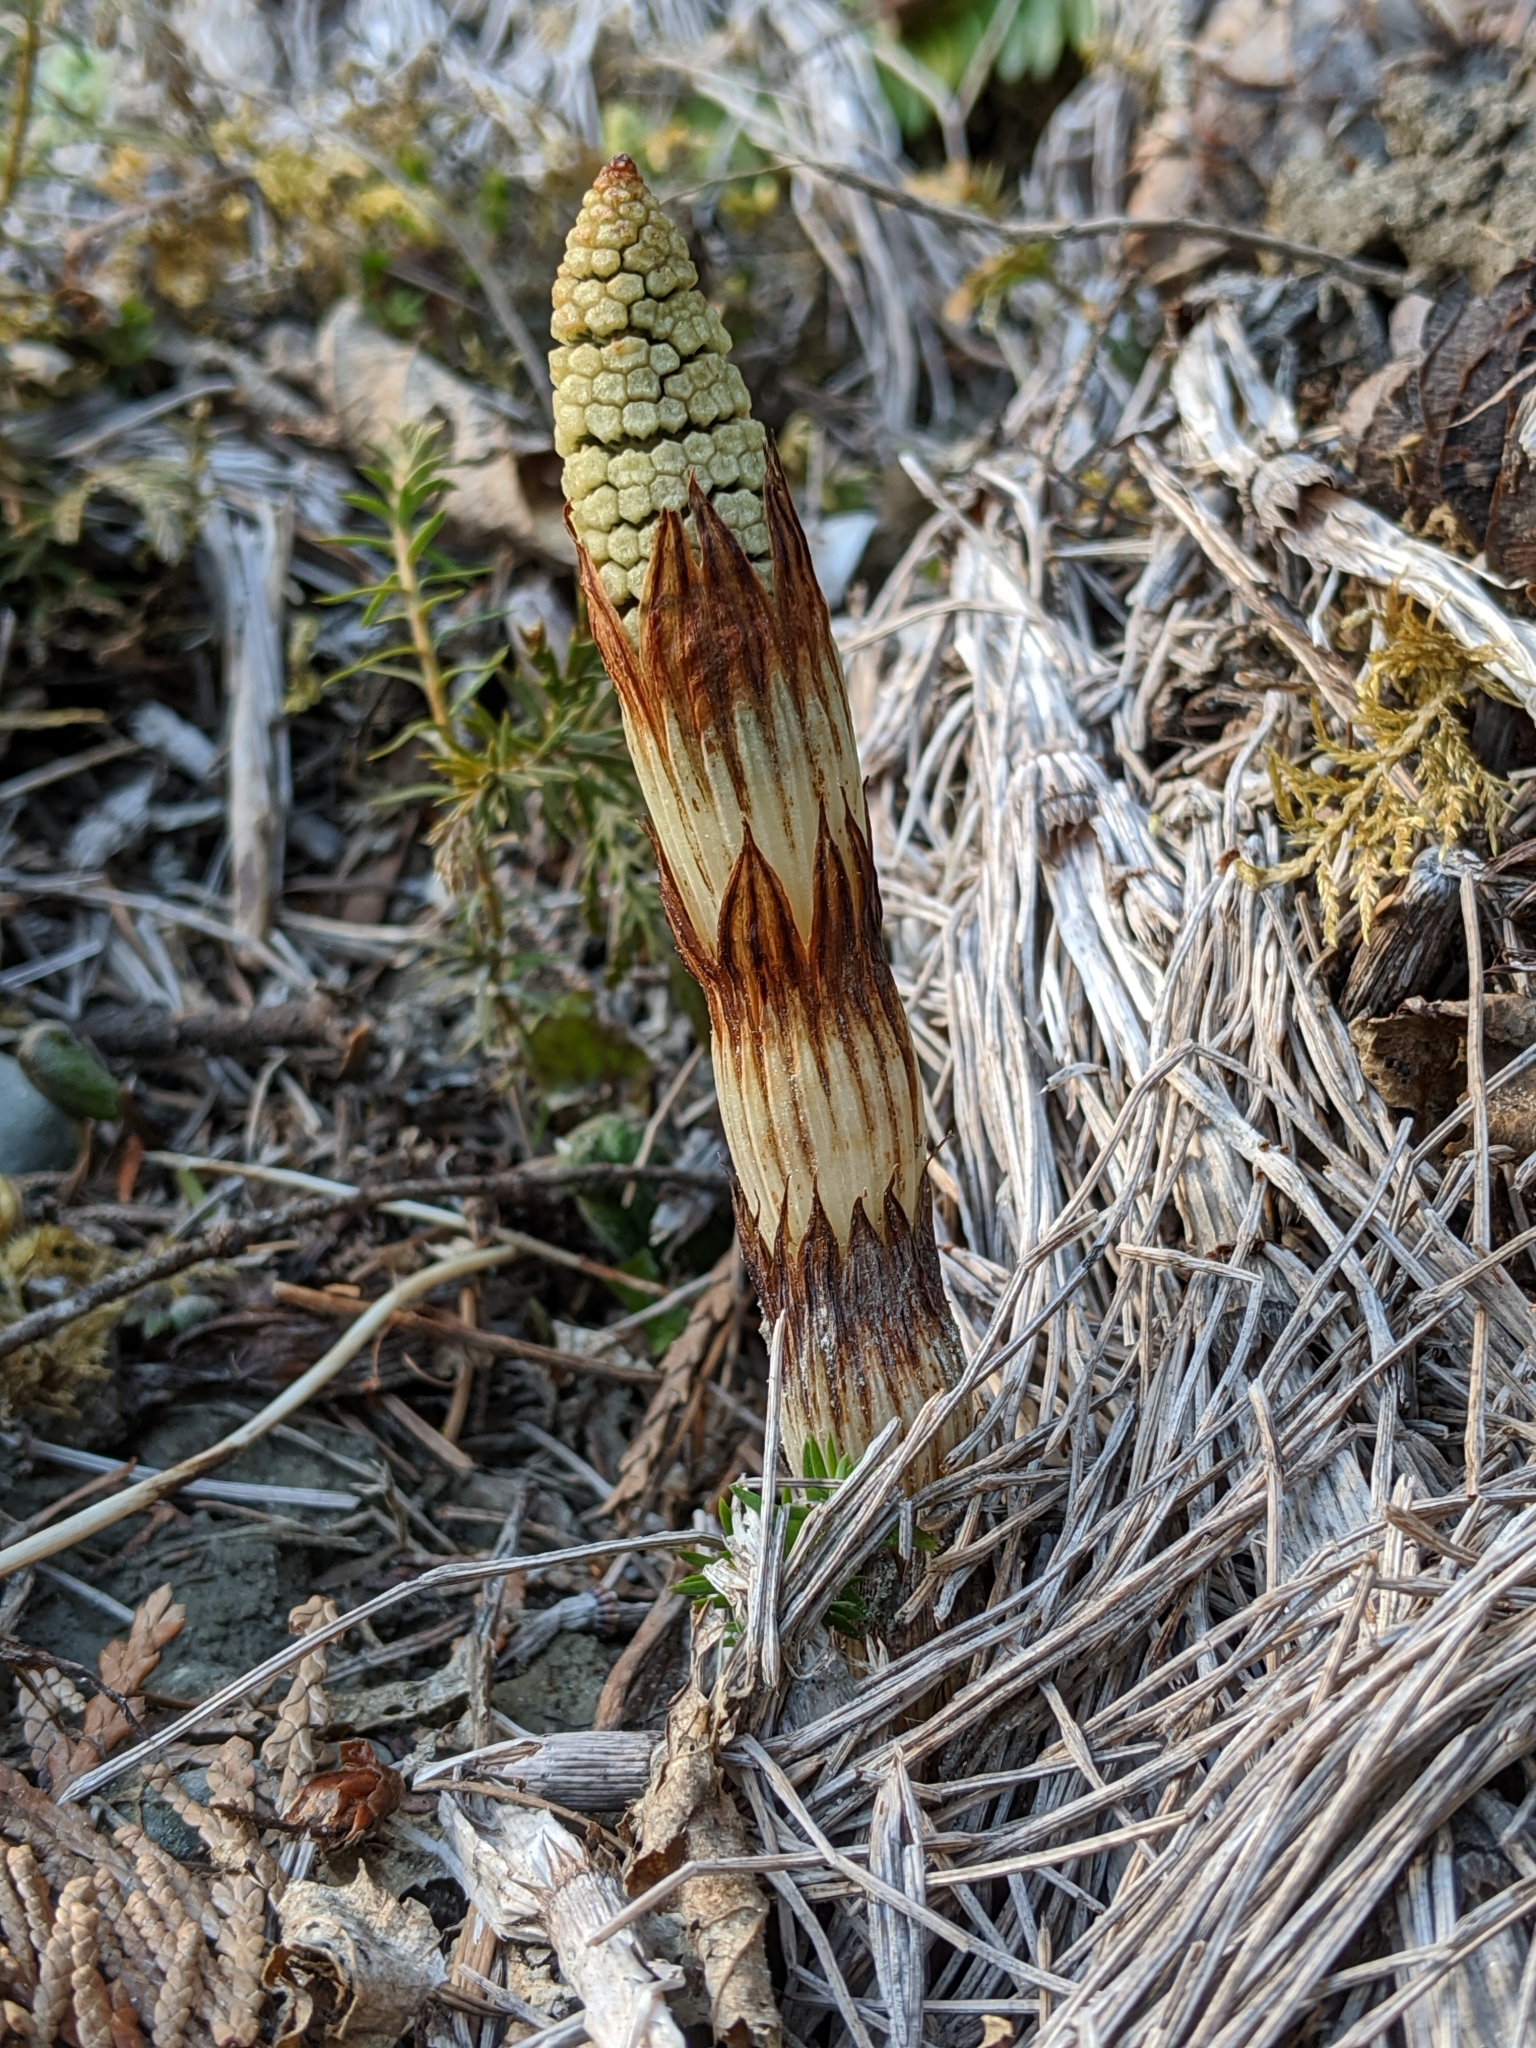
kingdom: Plantae
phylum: Tracheophyta
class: Polypodiopsida
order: Equisetales
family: Equisetaceae
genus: Equisetum
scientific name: Equisetum braunii
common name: Braun's horsetail
